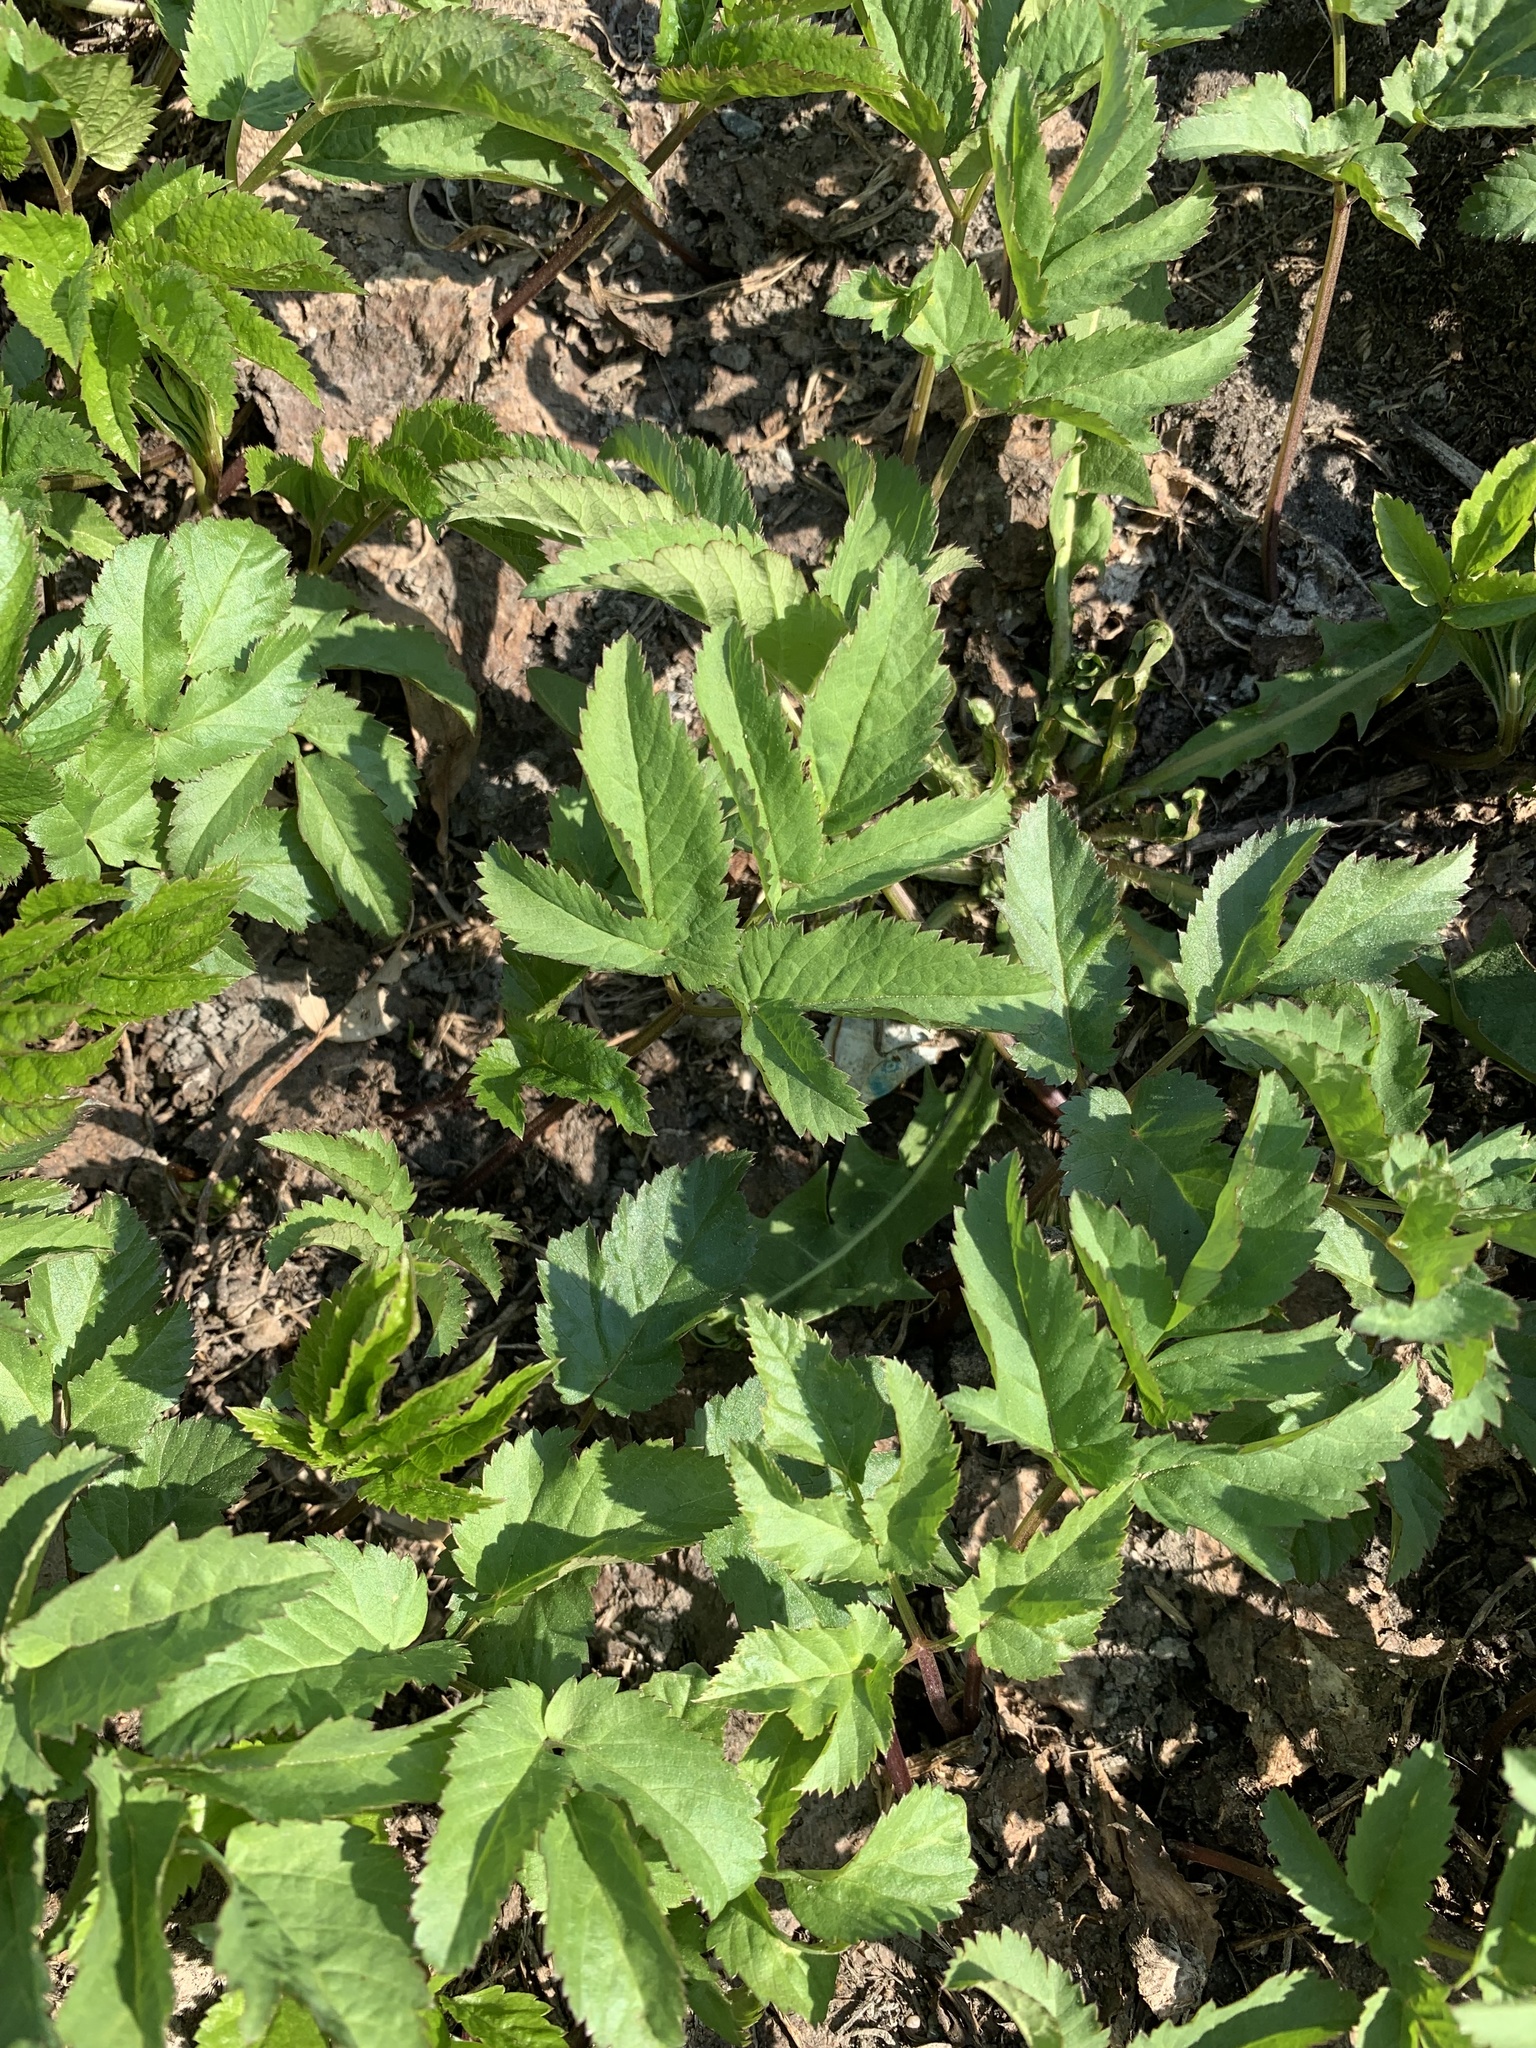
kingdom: Plantae
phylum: Tracheophyta
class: Magnoliopsida
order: Apiales
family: Apiaceae
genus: Aegopodium
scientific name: Aegopodium podagraria
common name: Ground-elder
